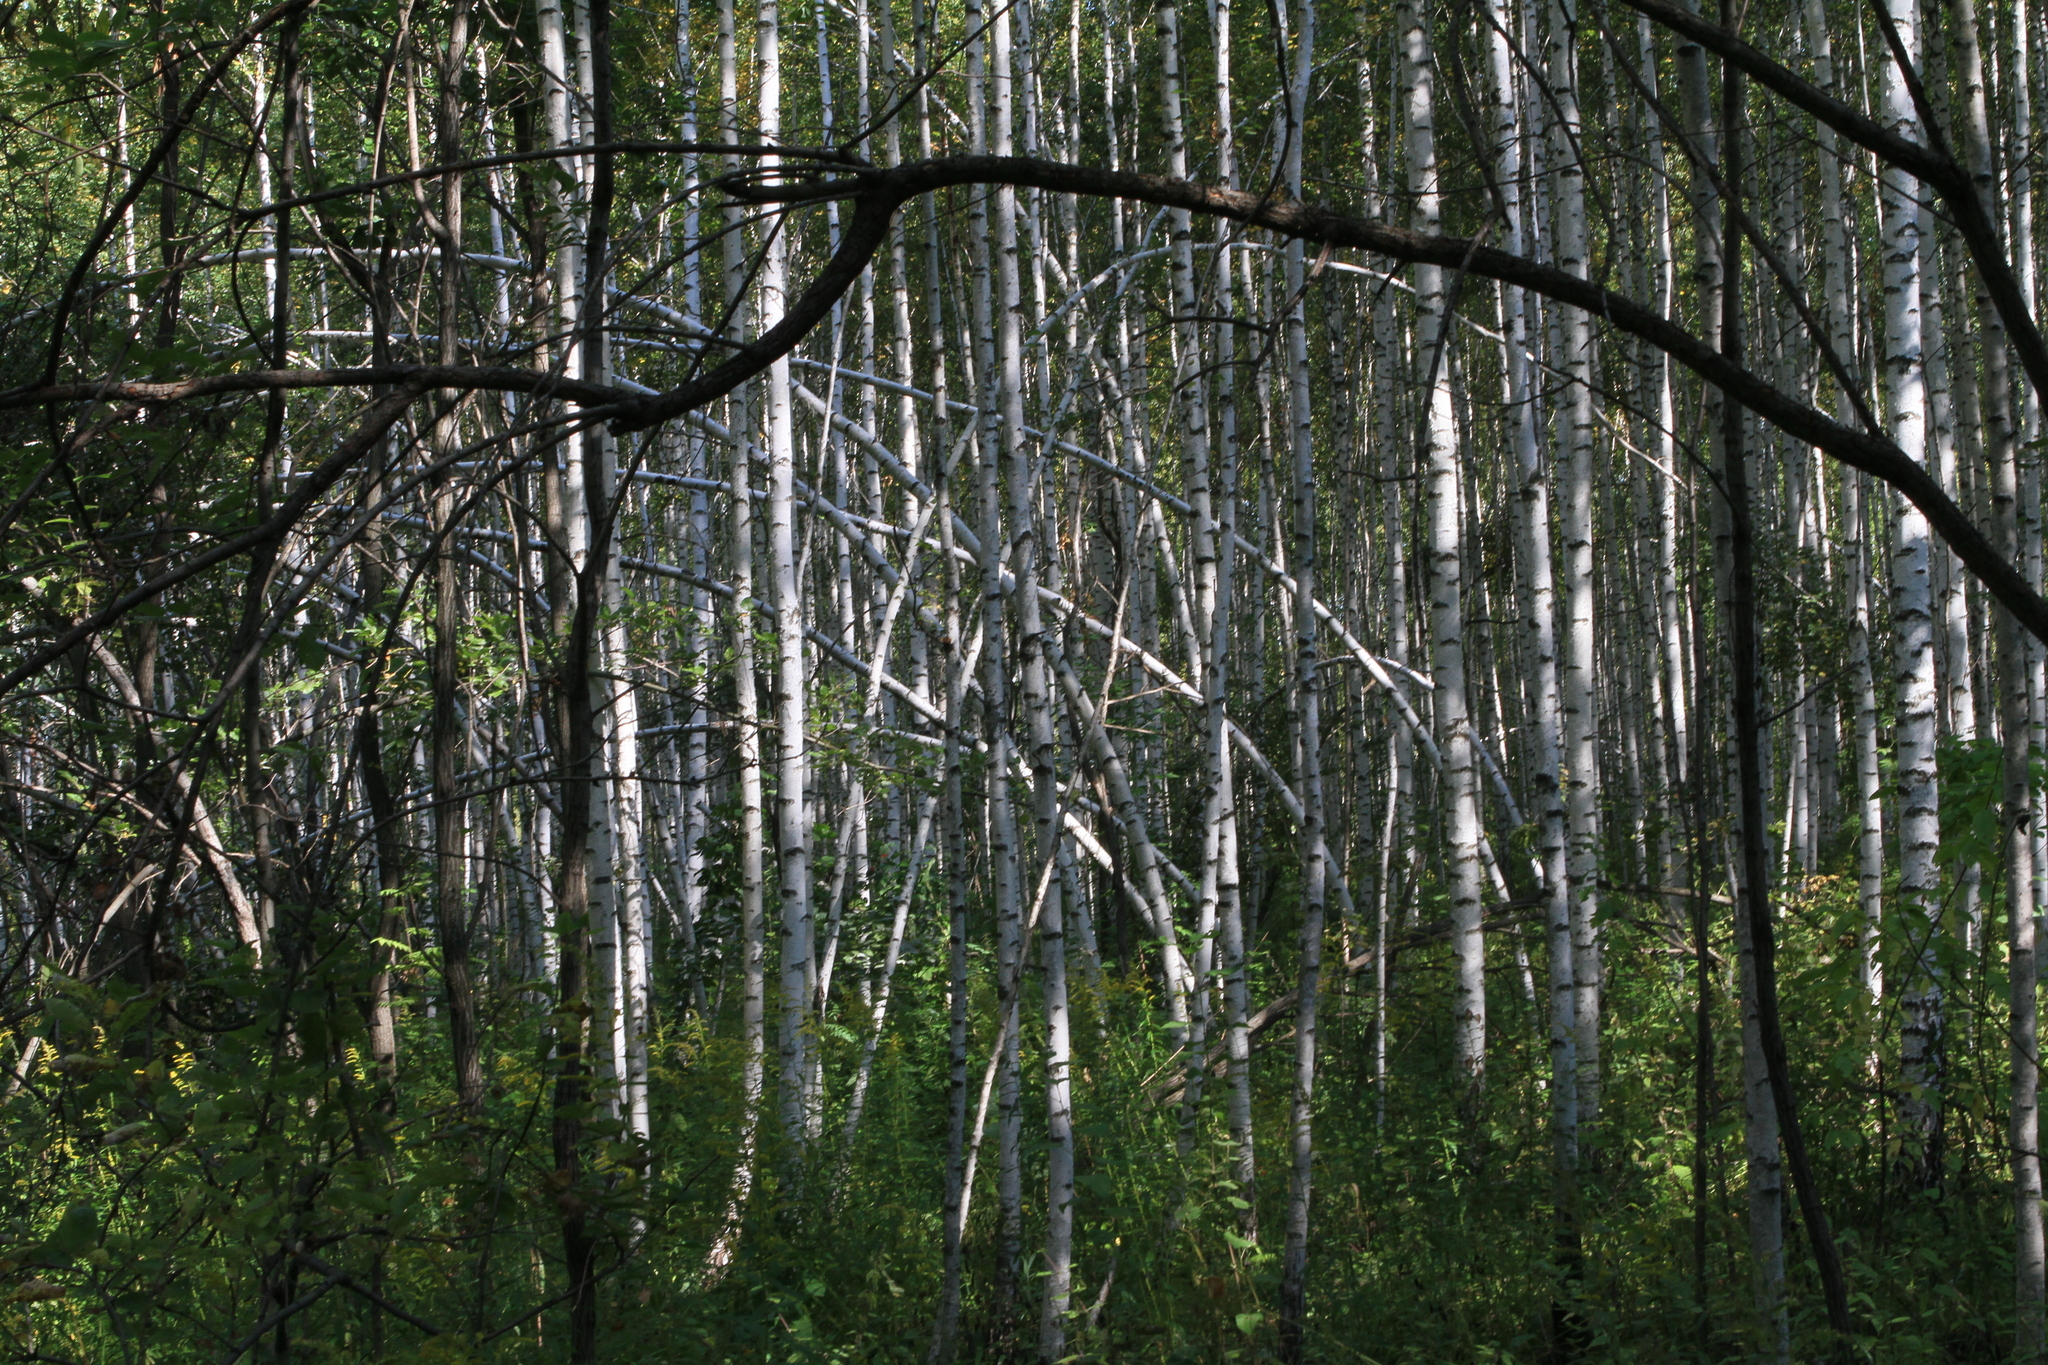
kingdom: Plantae
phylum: Tracheophyta
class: Magnoliopsida
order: Fagales
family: Betulaceae
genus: Betula
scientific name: Betula pendula
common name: Silver birch
